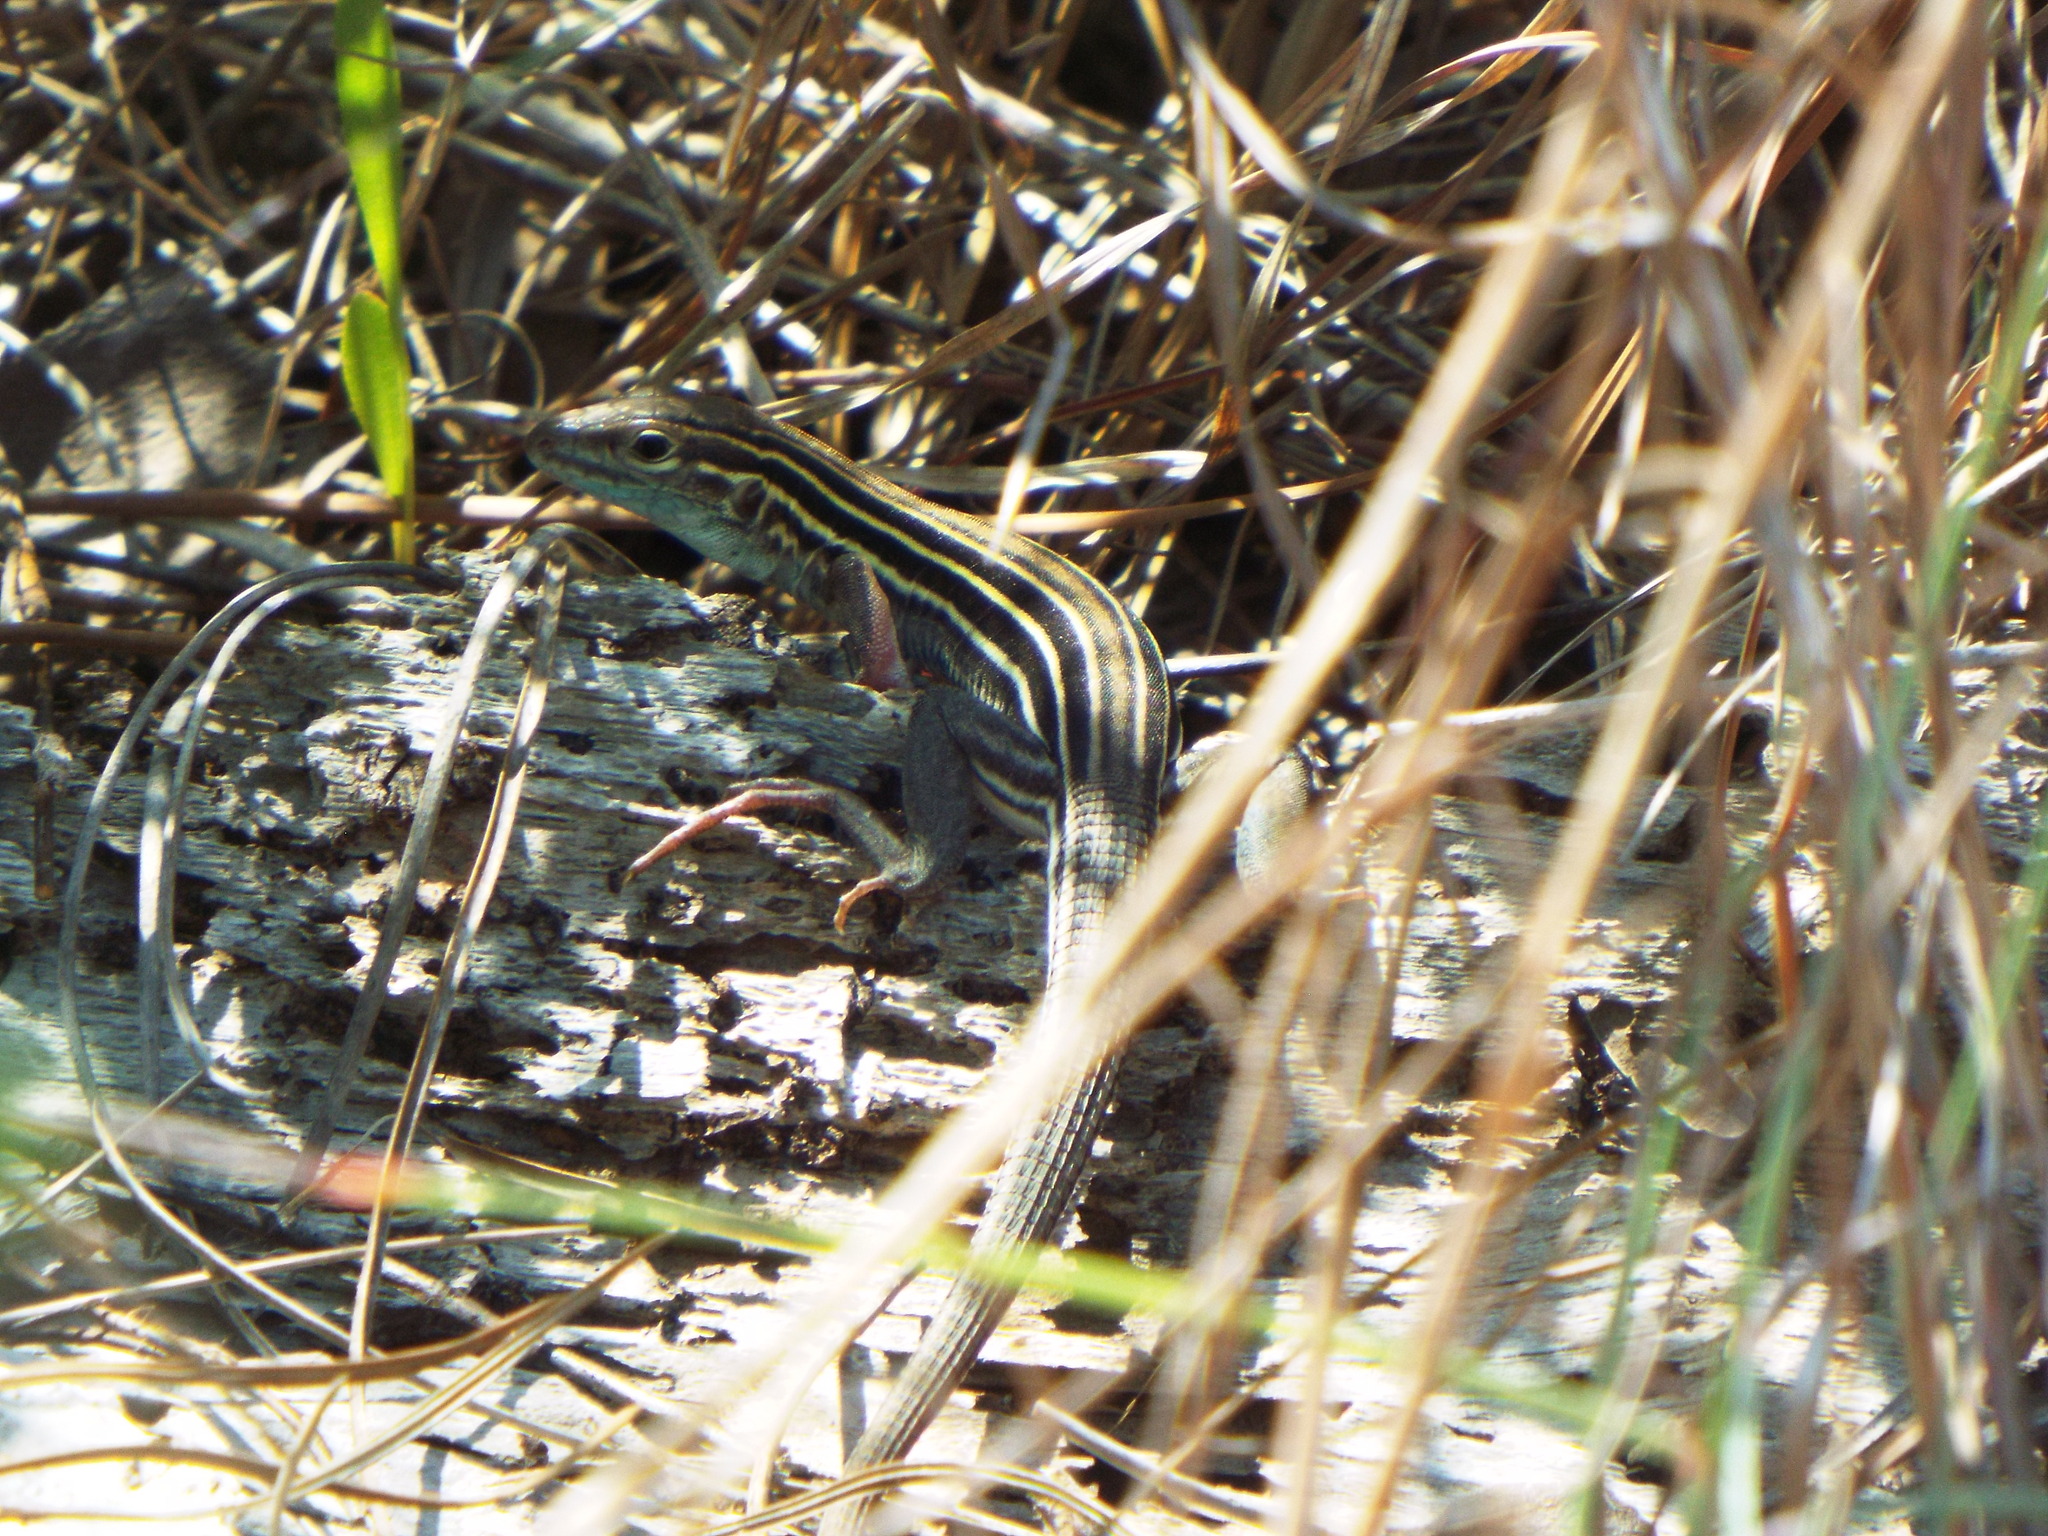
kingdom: Animalia
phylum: Chordata
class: Squamata
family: Teiidae
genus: Aspidoscelis
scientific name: Aspidoscelis sexlineatus
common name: Six-lined racerunner
